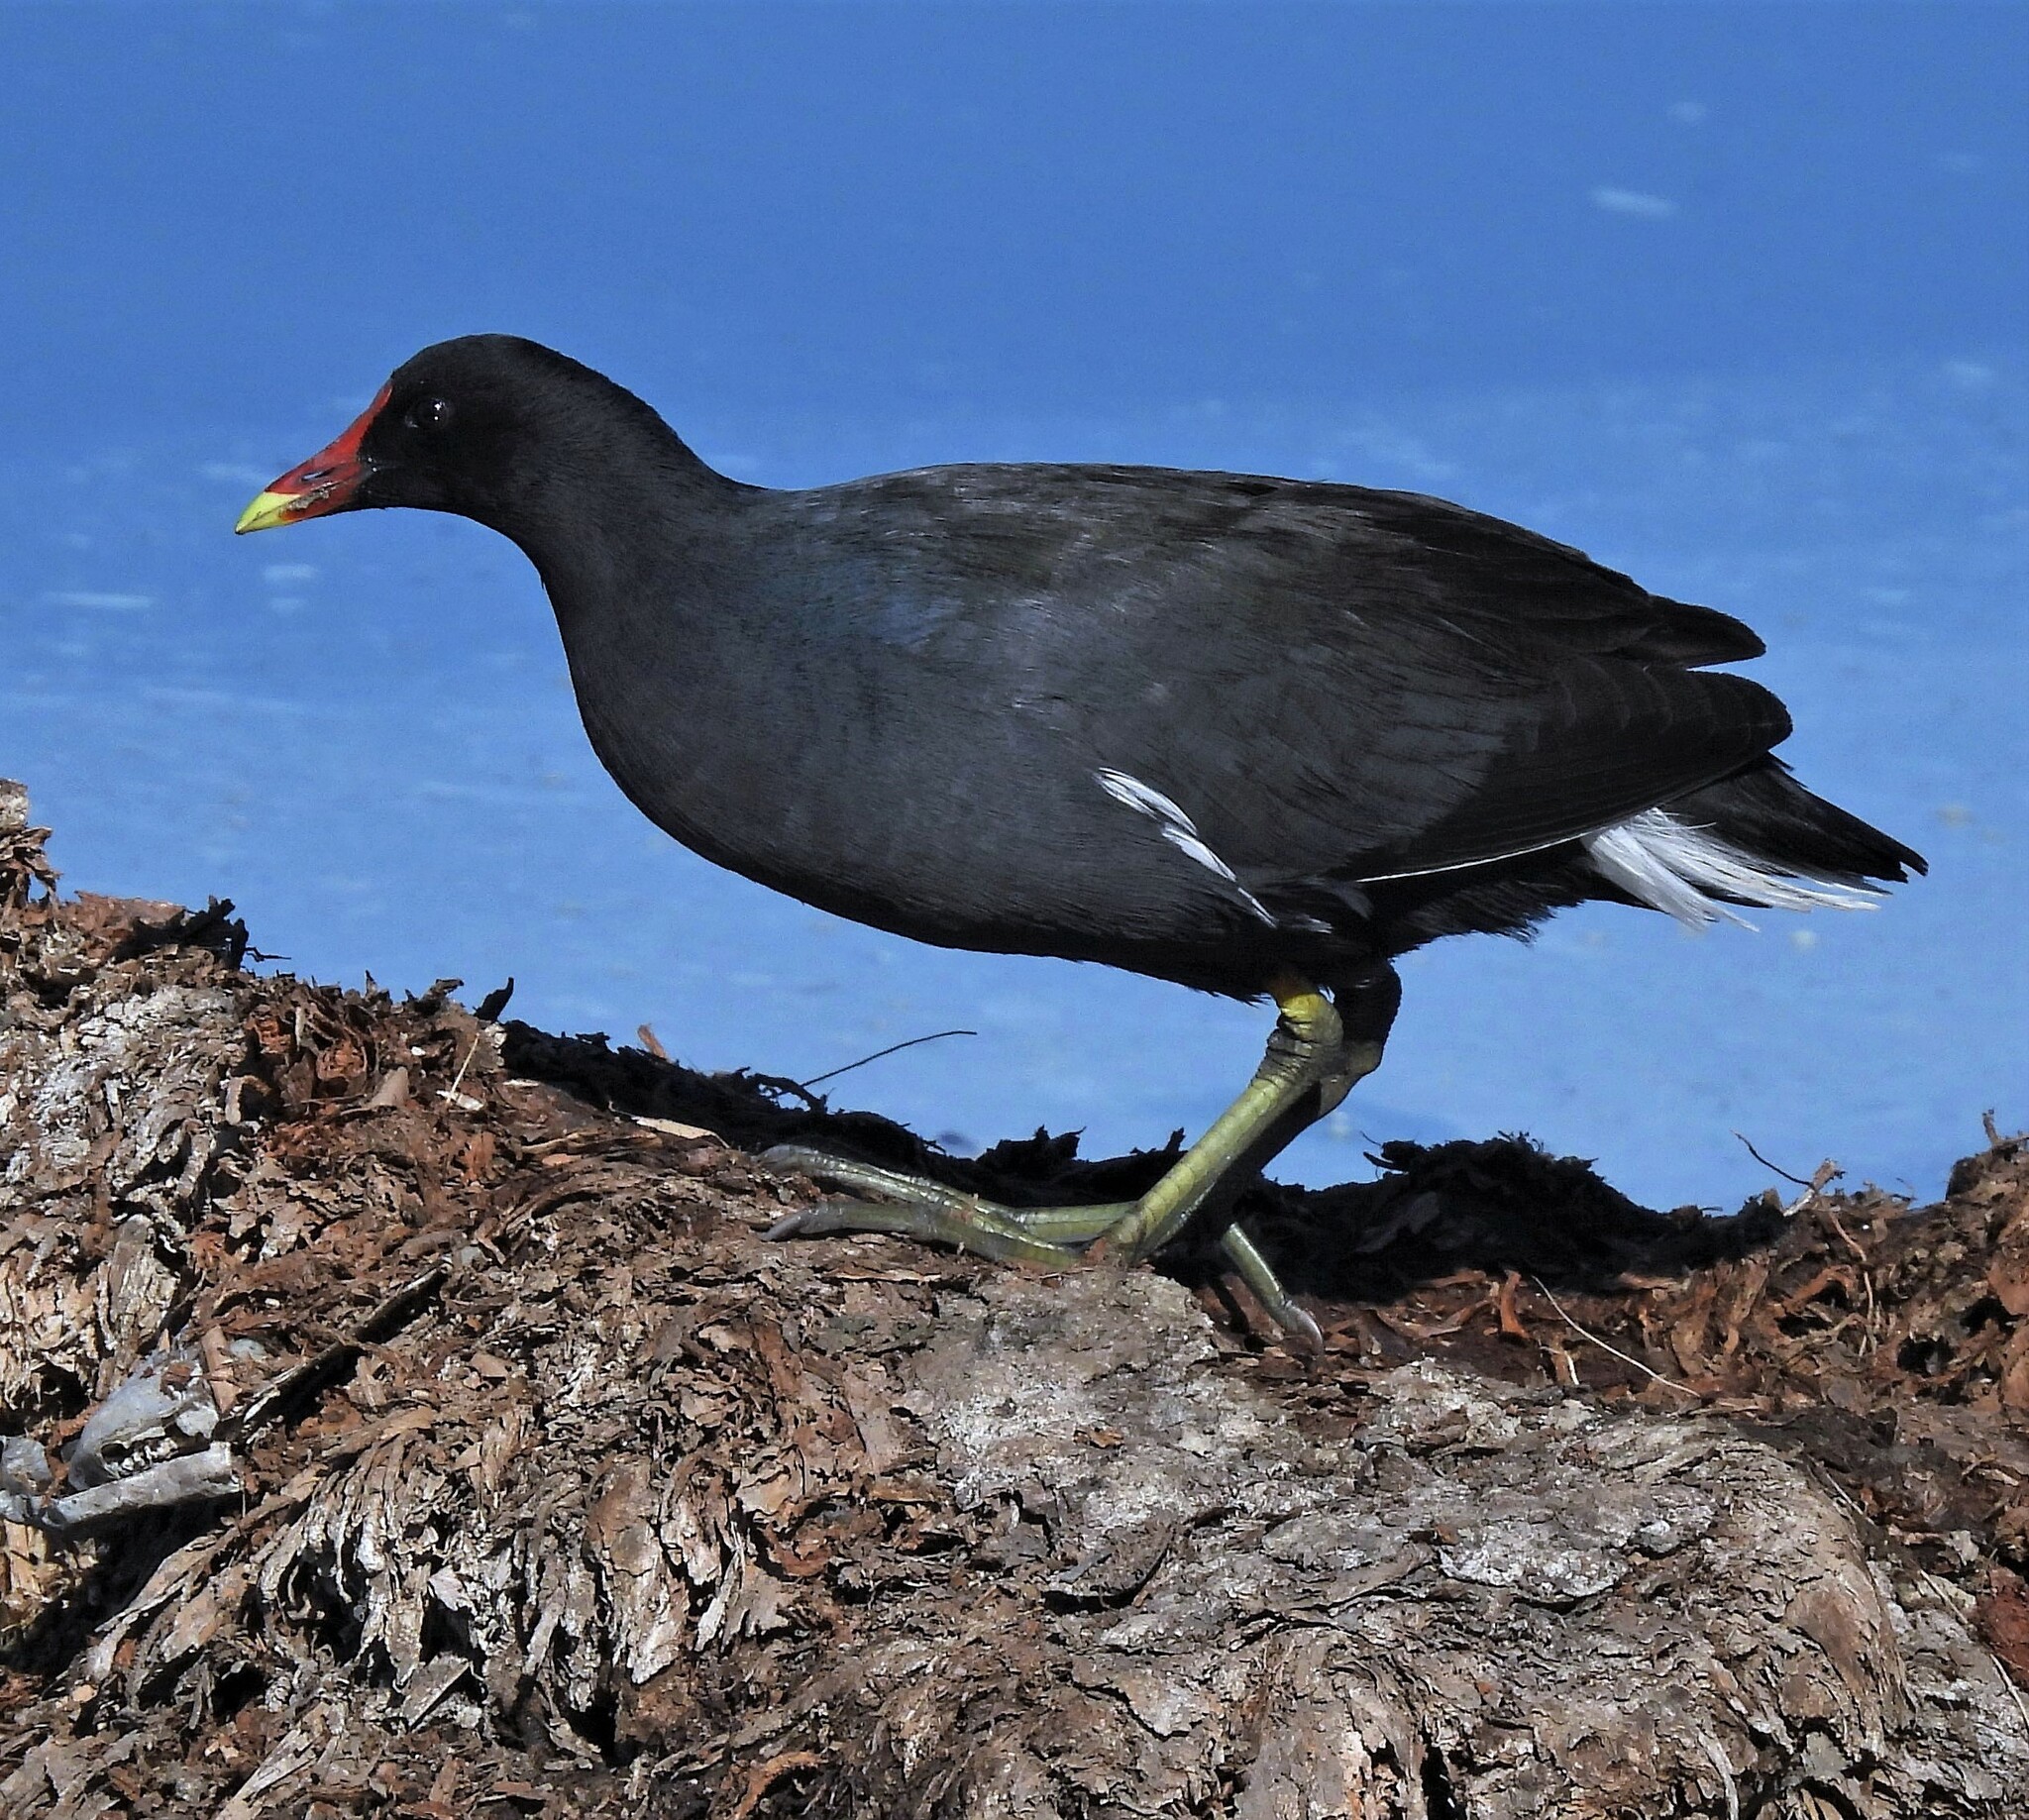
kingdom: Animalia
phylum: Chordata
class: Aves
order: Gruiformes
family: Rallidae
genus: Gallinula
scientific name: Gallinula chloropus
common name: Common moorhen
